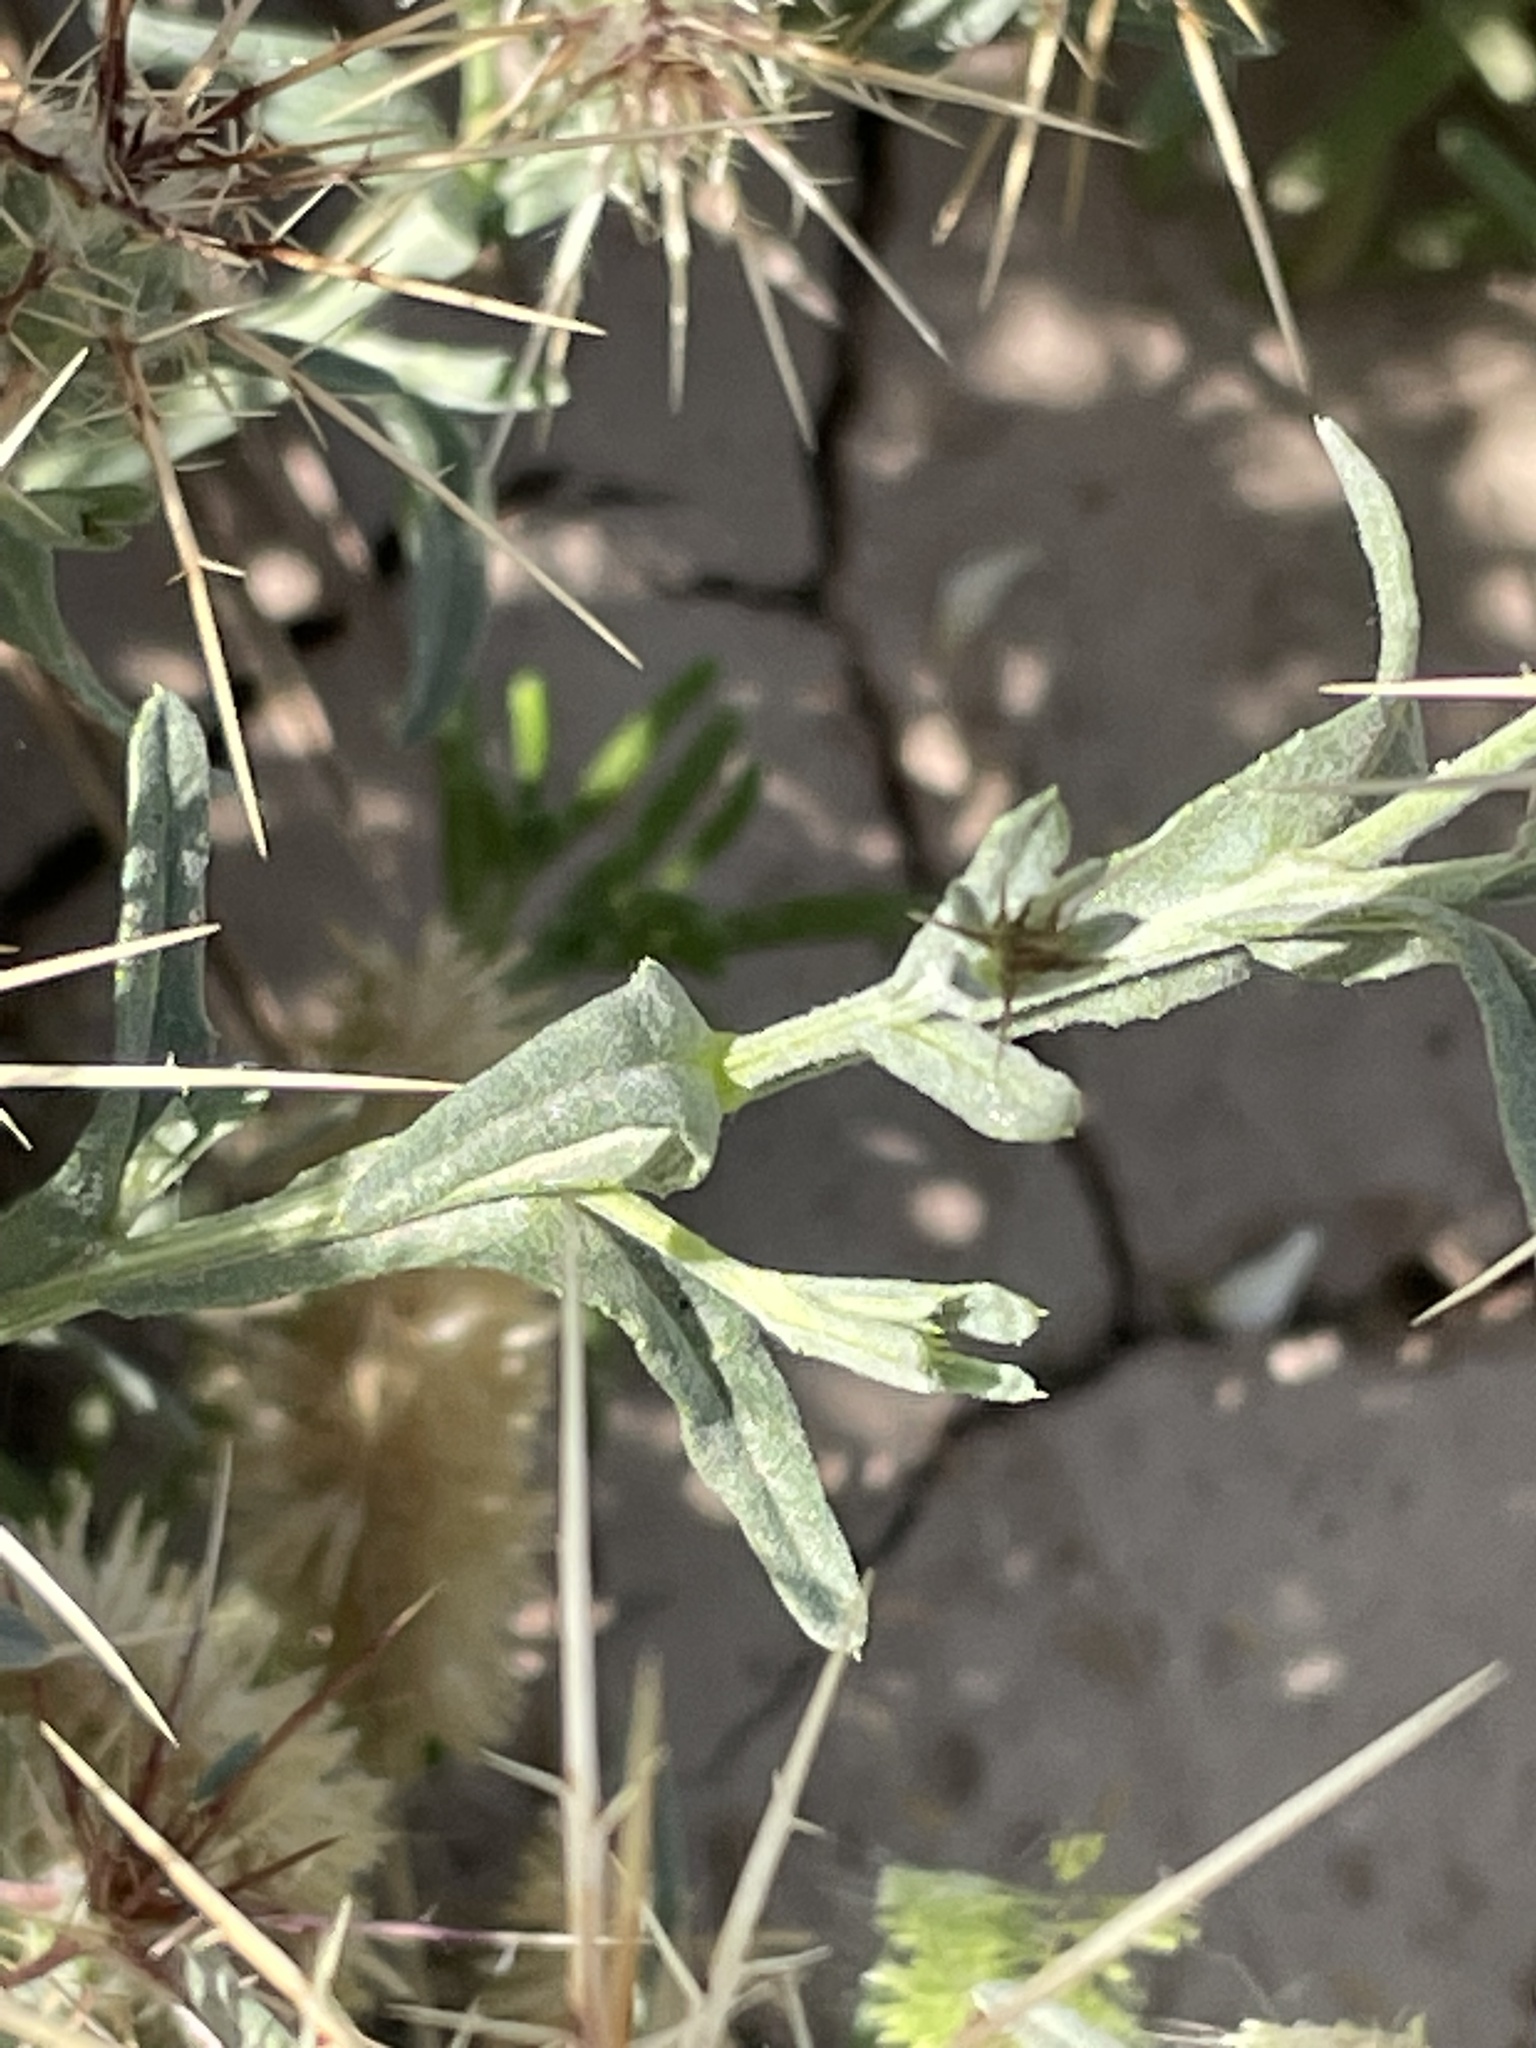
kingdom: Plantae
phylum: Tracheophyta
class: Magnoliopsida
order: Asterales
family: Asteraceae
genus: Centaurea
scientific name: Centaurea maroccana
